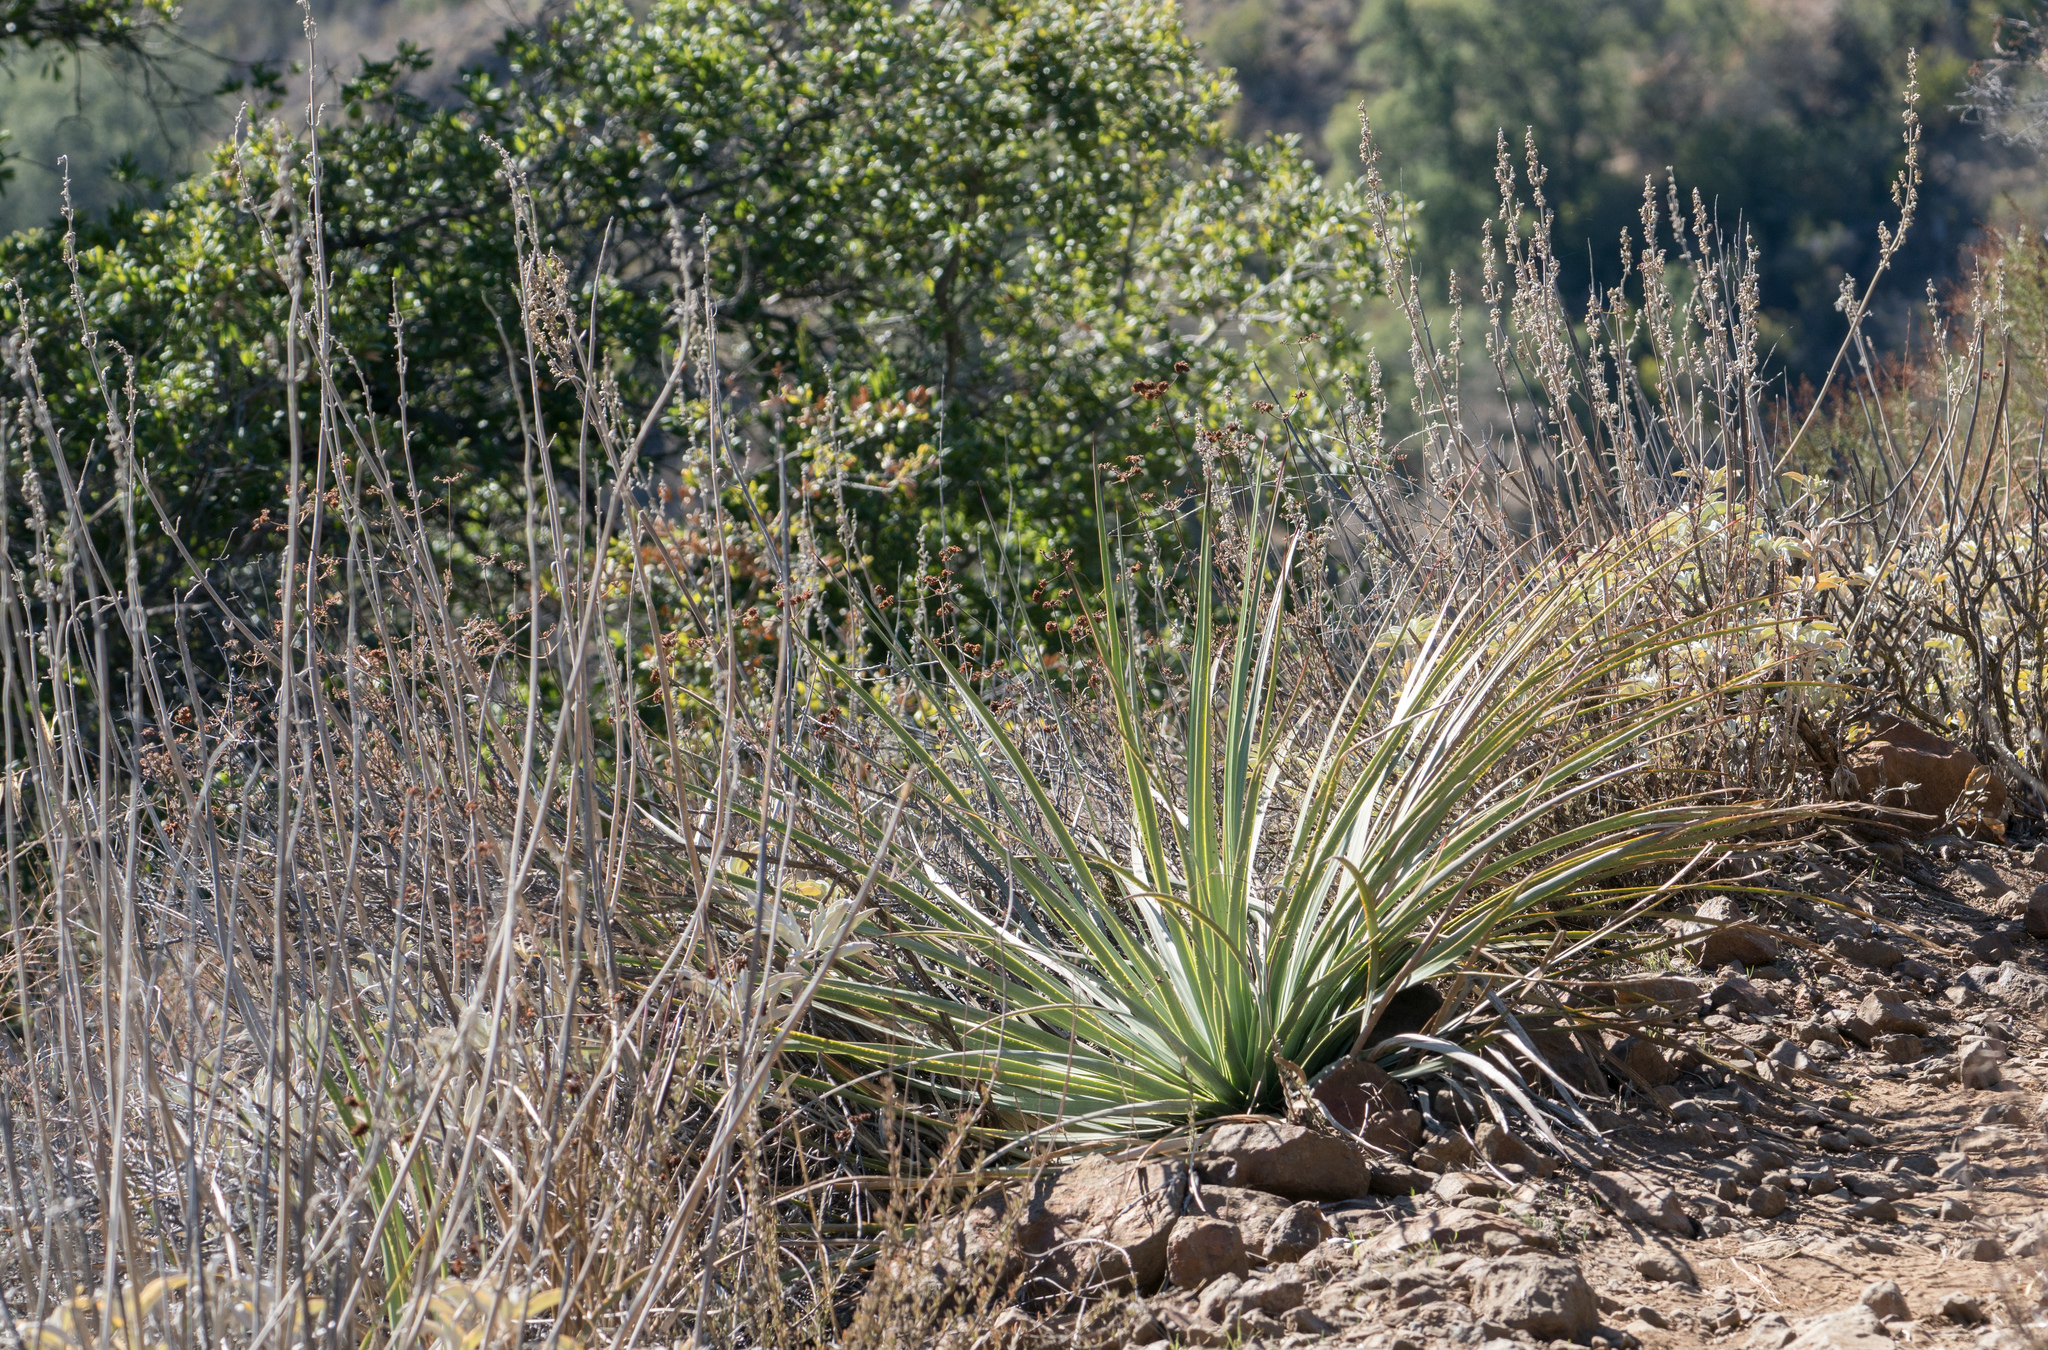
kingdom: Plantae
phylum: Tracheophyta
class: Liliopsida
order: Asparagales
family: Asparagaceae
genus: Hesperoyucca
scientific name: Hesperoyucca whipplei
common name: Our lord's-candle
